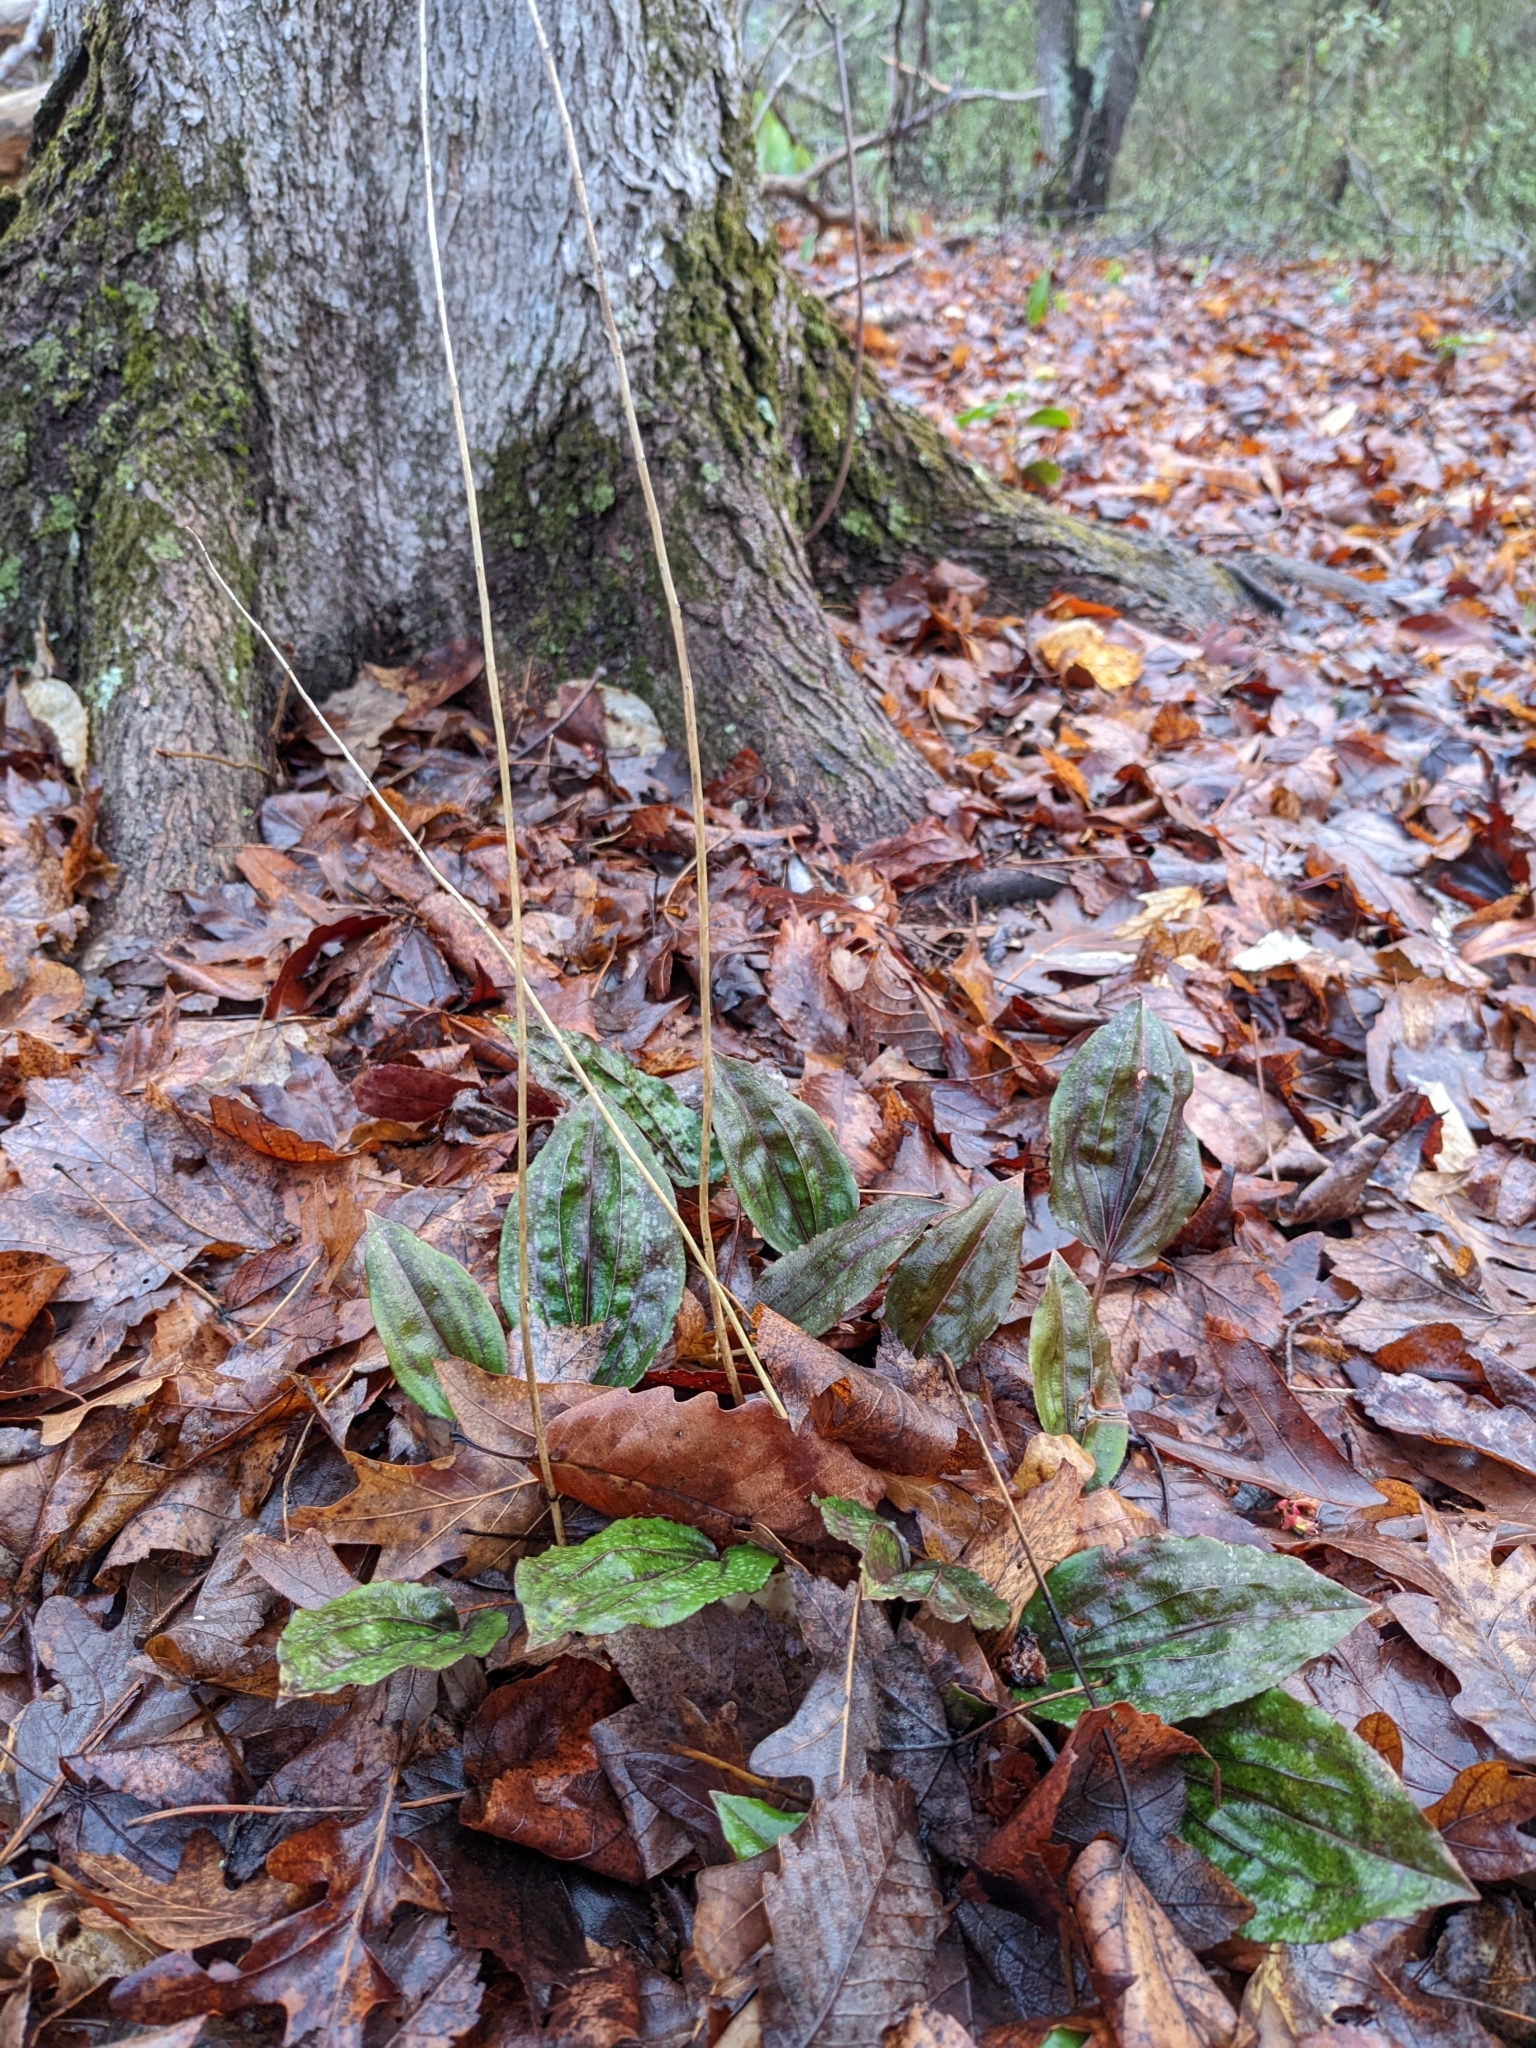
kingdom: Plantae
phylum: Tracheophyta
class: Liliopsida
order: Asparagales
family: Orchidaceae
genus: Tipularia
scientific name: Tipularia discolor
